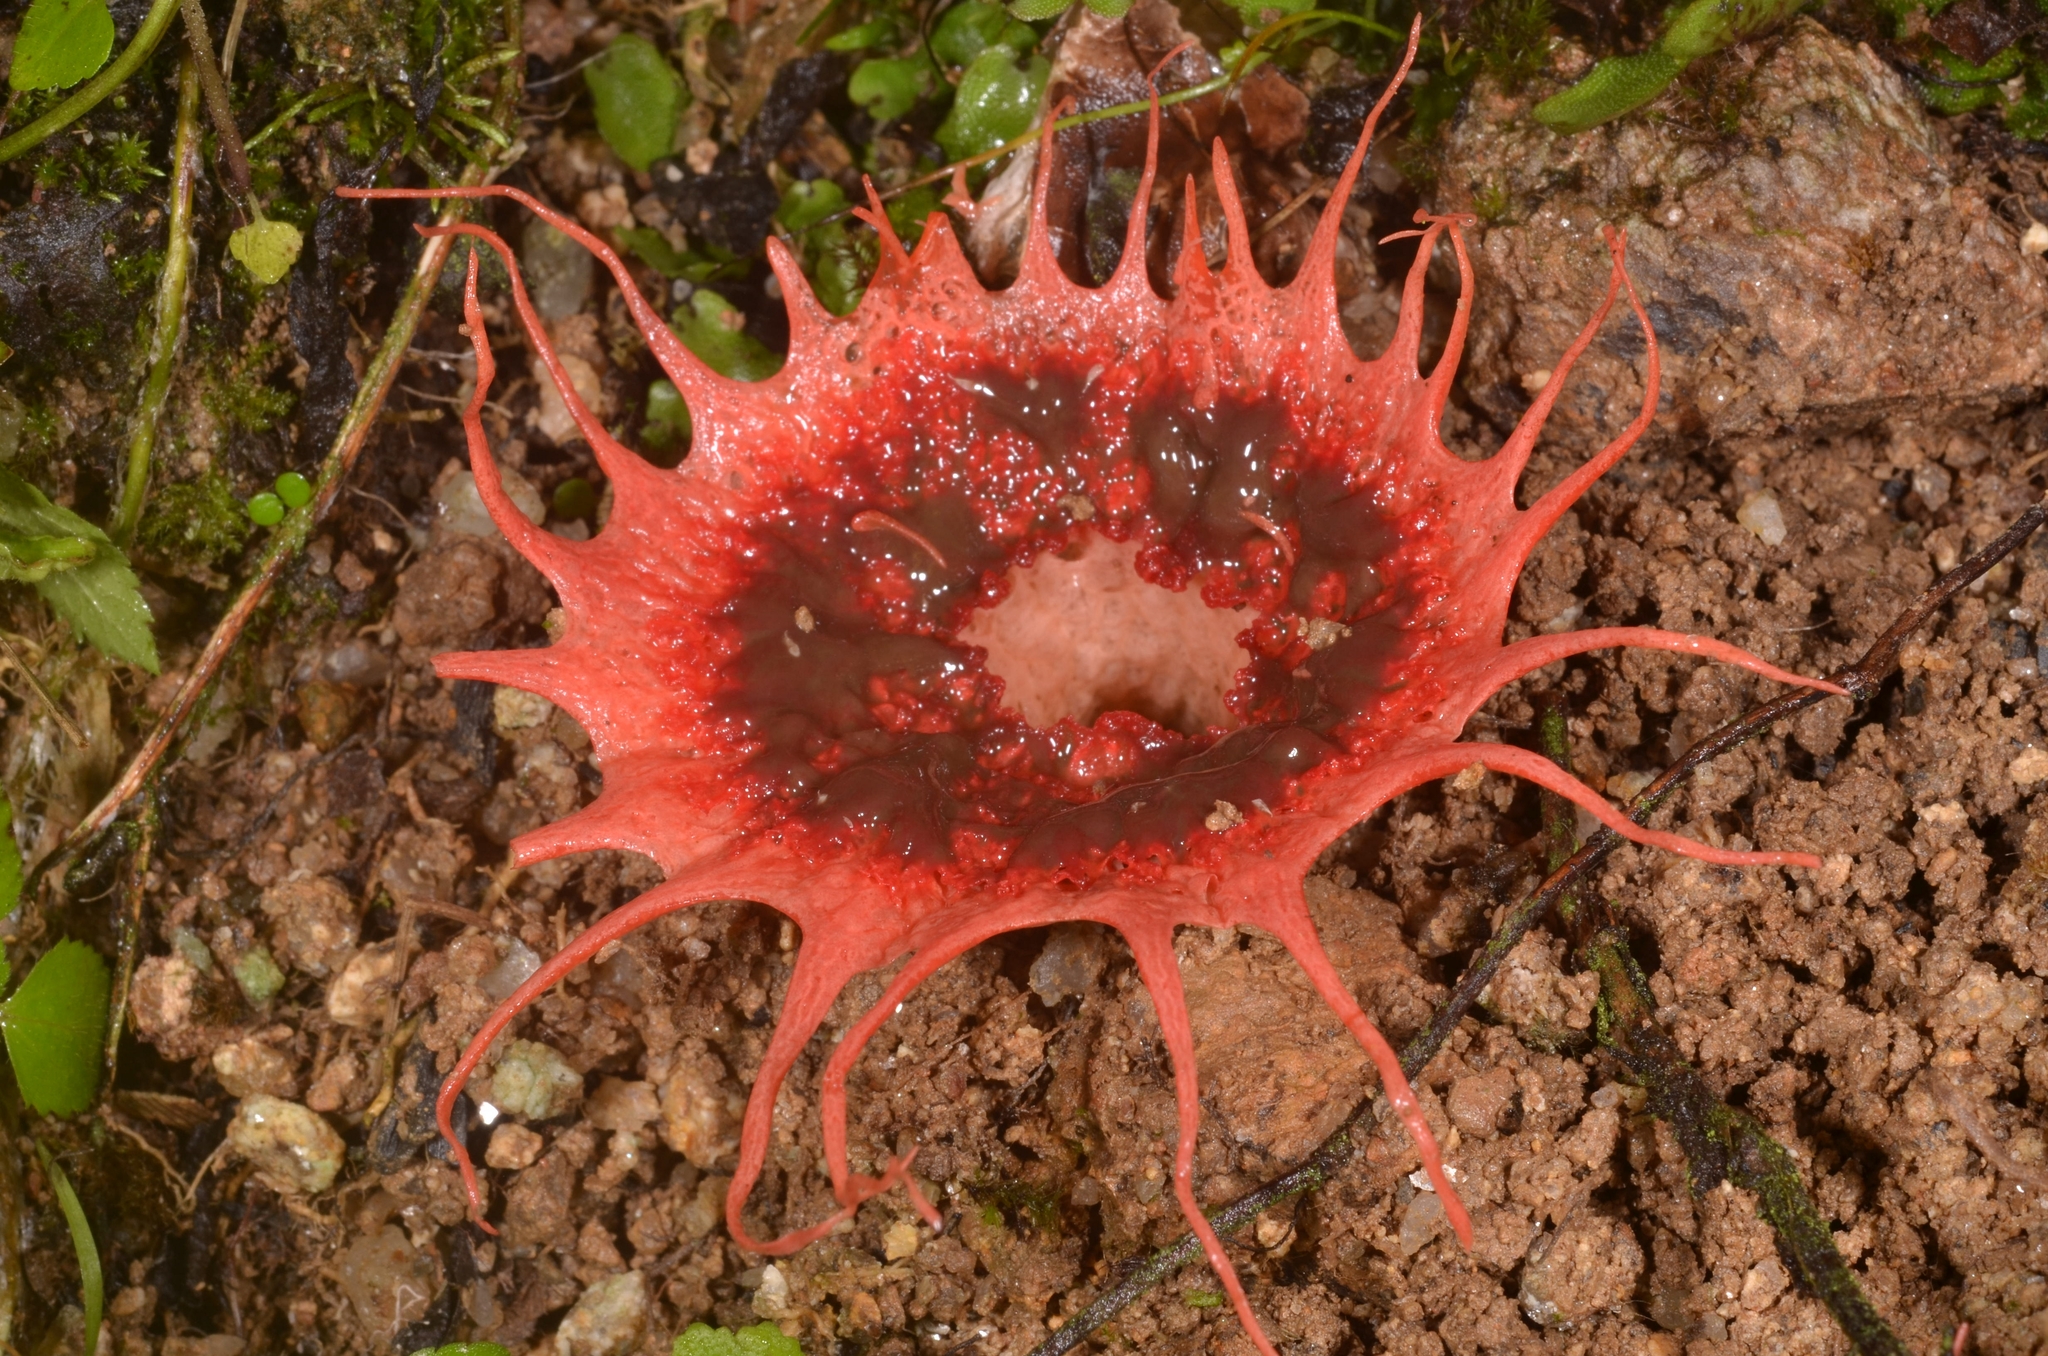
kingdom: Fungi
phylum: Basidiomycota
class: Agaricomycetes
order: Phallales
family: Phallaceae
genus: Aseroe
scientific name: Aseroe rubra
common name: Starfish fungus
